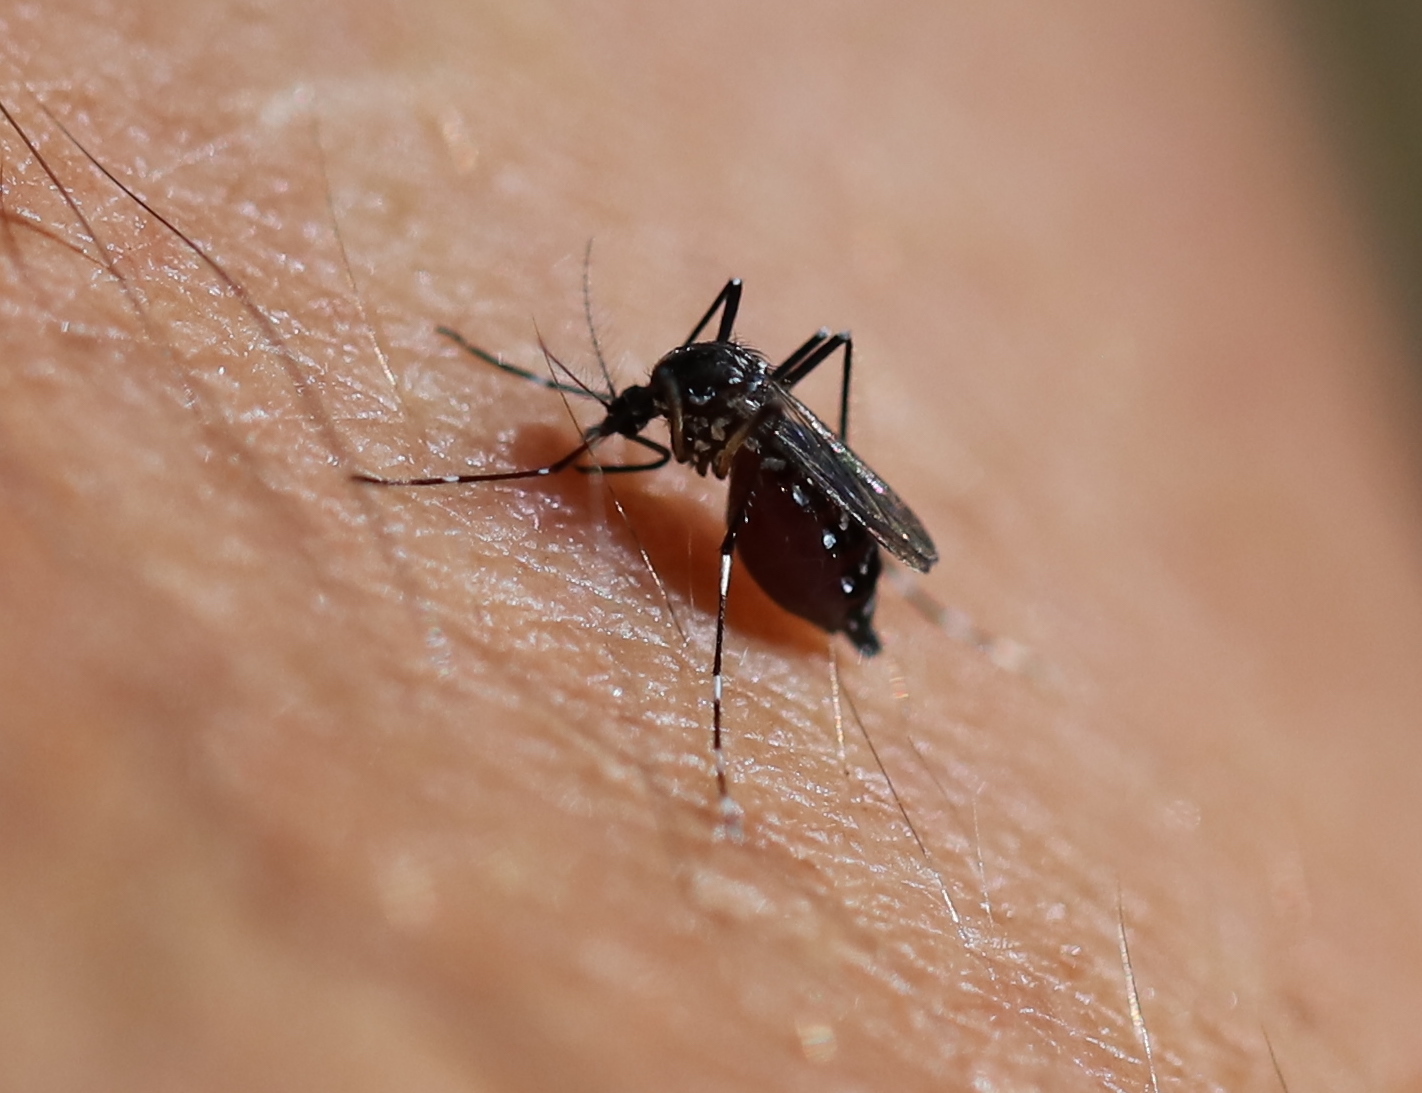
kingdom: Animalia
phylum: Arthropoda
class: Insecta
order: Diptera
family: Culicidae
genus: Aedes
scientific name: Aedes albopictus
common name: Tiger mosquito
